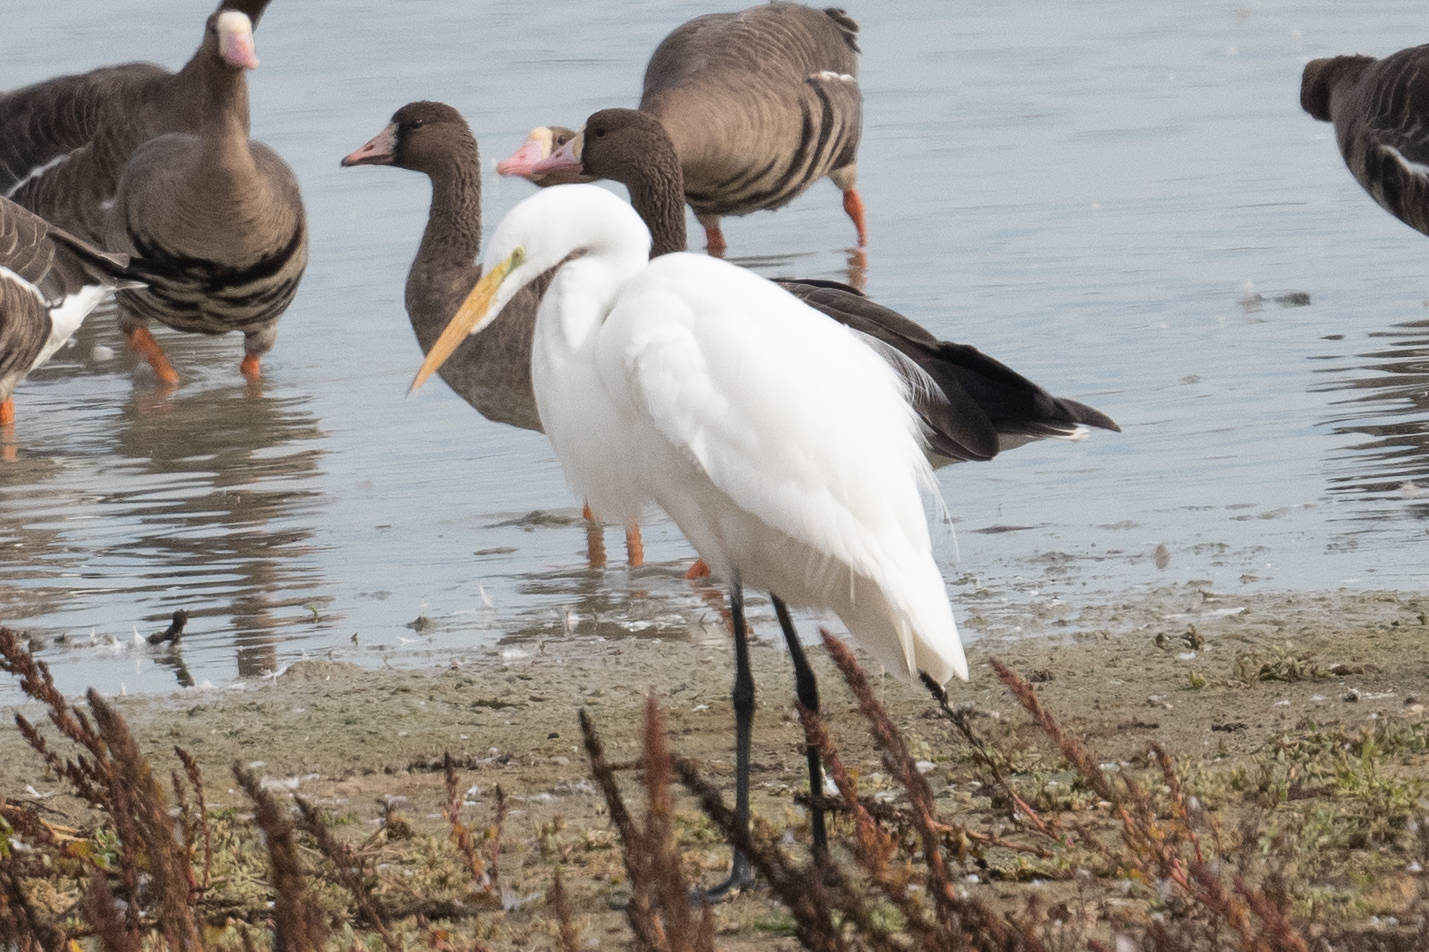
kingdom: Animalia
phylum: Chordata
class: Aves
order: Pelecaniformes
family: Ardeidae
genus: Ardea
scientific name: Ardea alba
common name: Great egret
